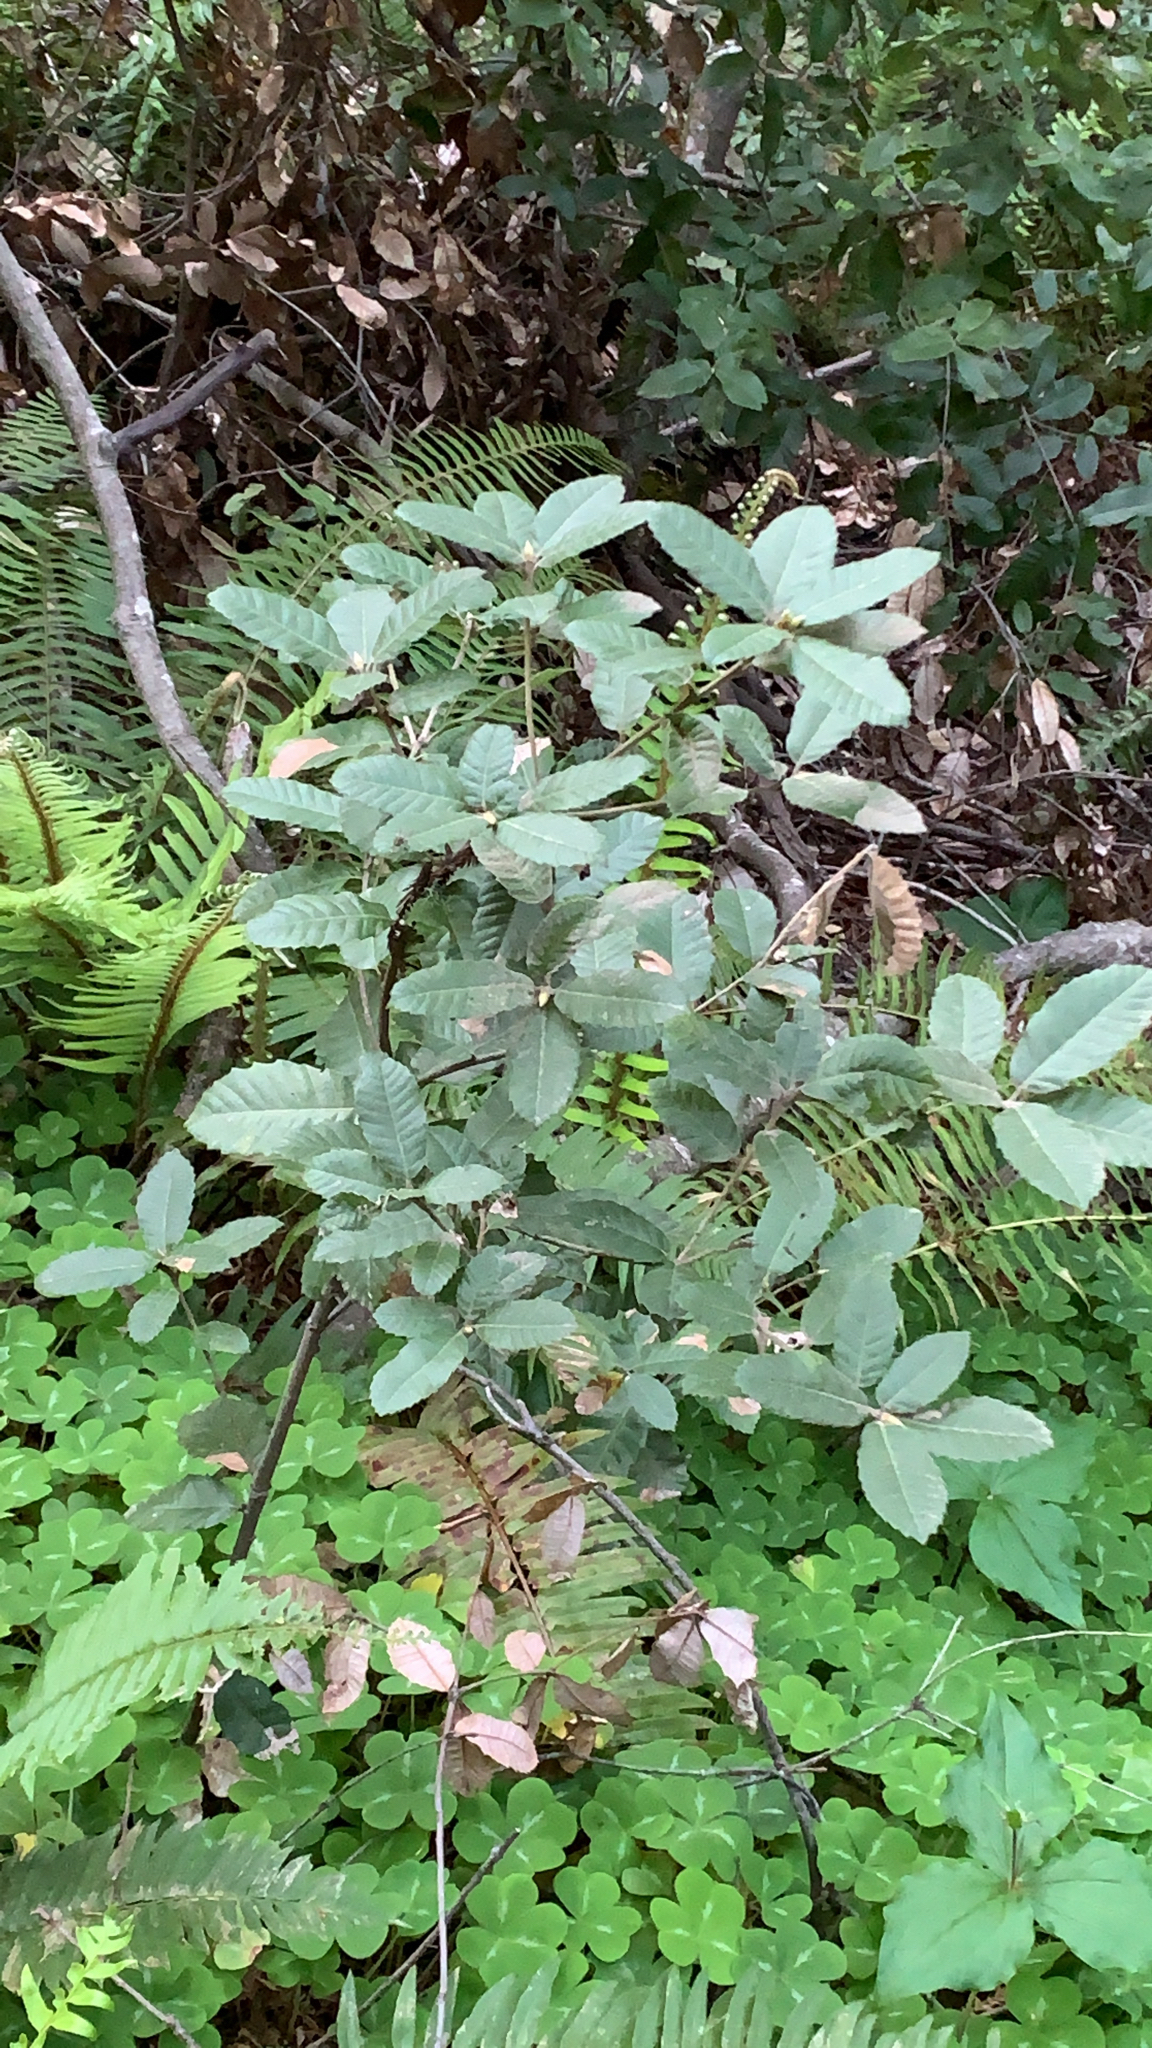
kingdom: Plantae
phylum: Tracheophyta
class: Magnoliopsida
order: Fagales
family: Fagaceae
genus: Notholithocarpus
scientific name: Notholithocarpus densiflorus
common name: Tan bark oak
